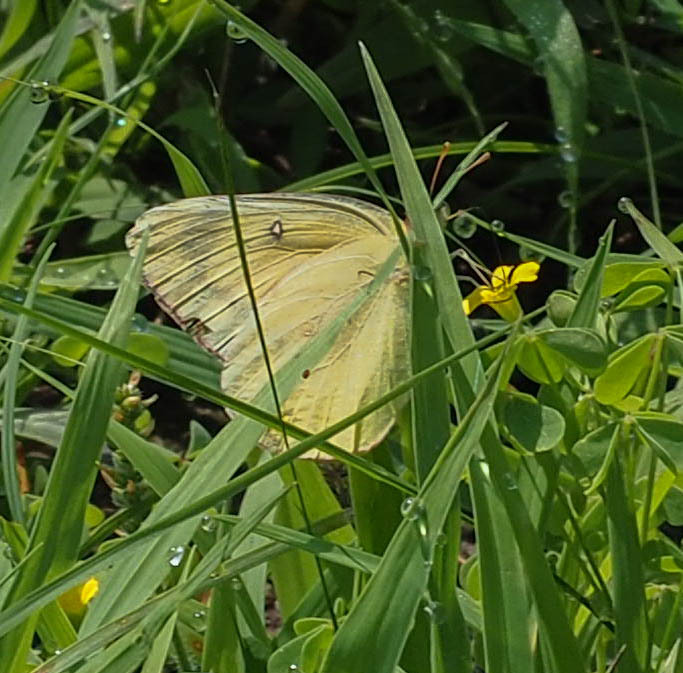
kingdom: Animalia
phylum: Arthropoda
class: Insecta
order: Lepidoptera
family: Pieridae
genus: Colias
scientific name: Colias eurytheme
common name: Alfalfa butterfly
